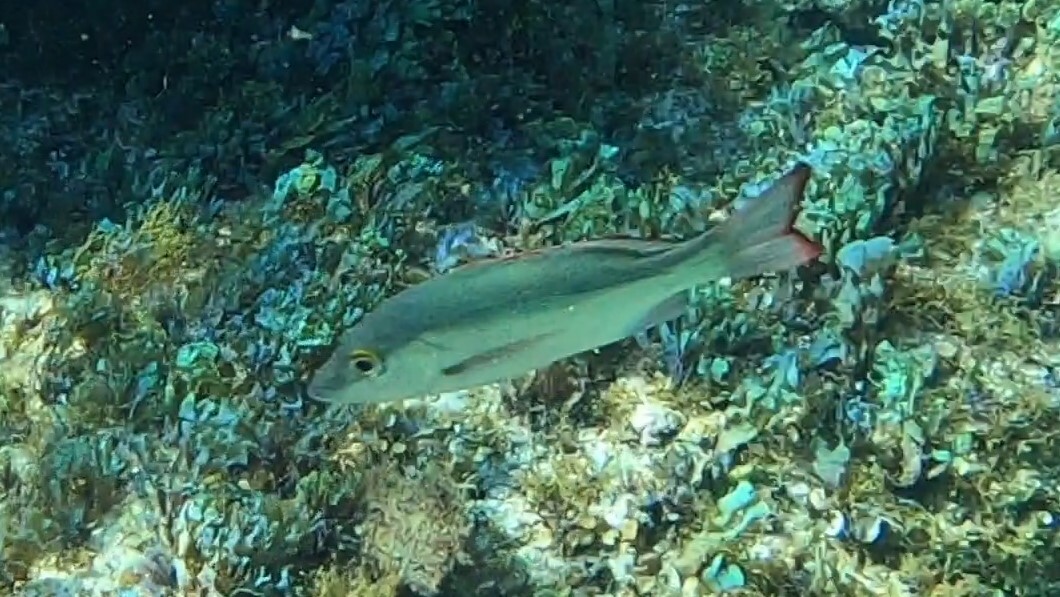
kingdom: Animalia
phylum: Chordata
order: Perciformes
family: Lutjanidae
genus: Lutjanus
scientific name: Lutjanus mahogoni
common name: Spot snapper
